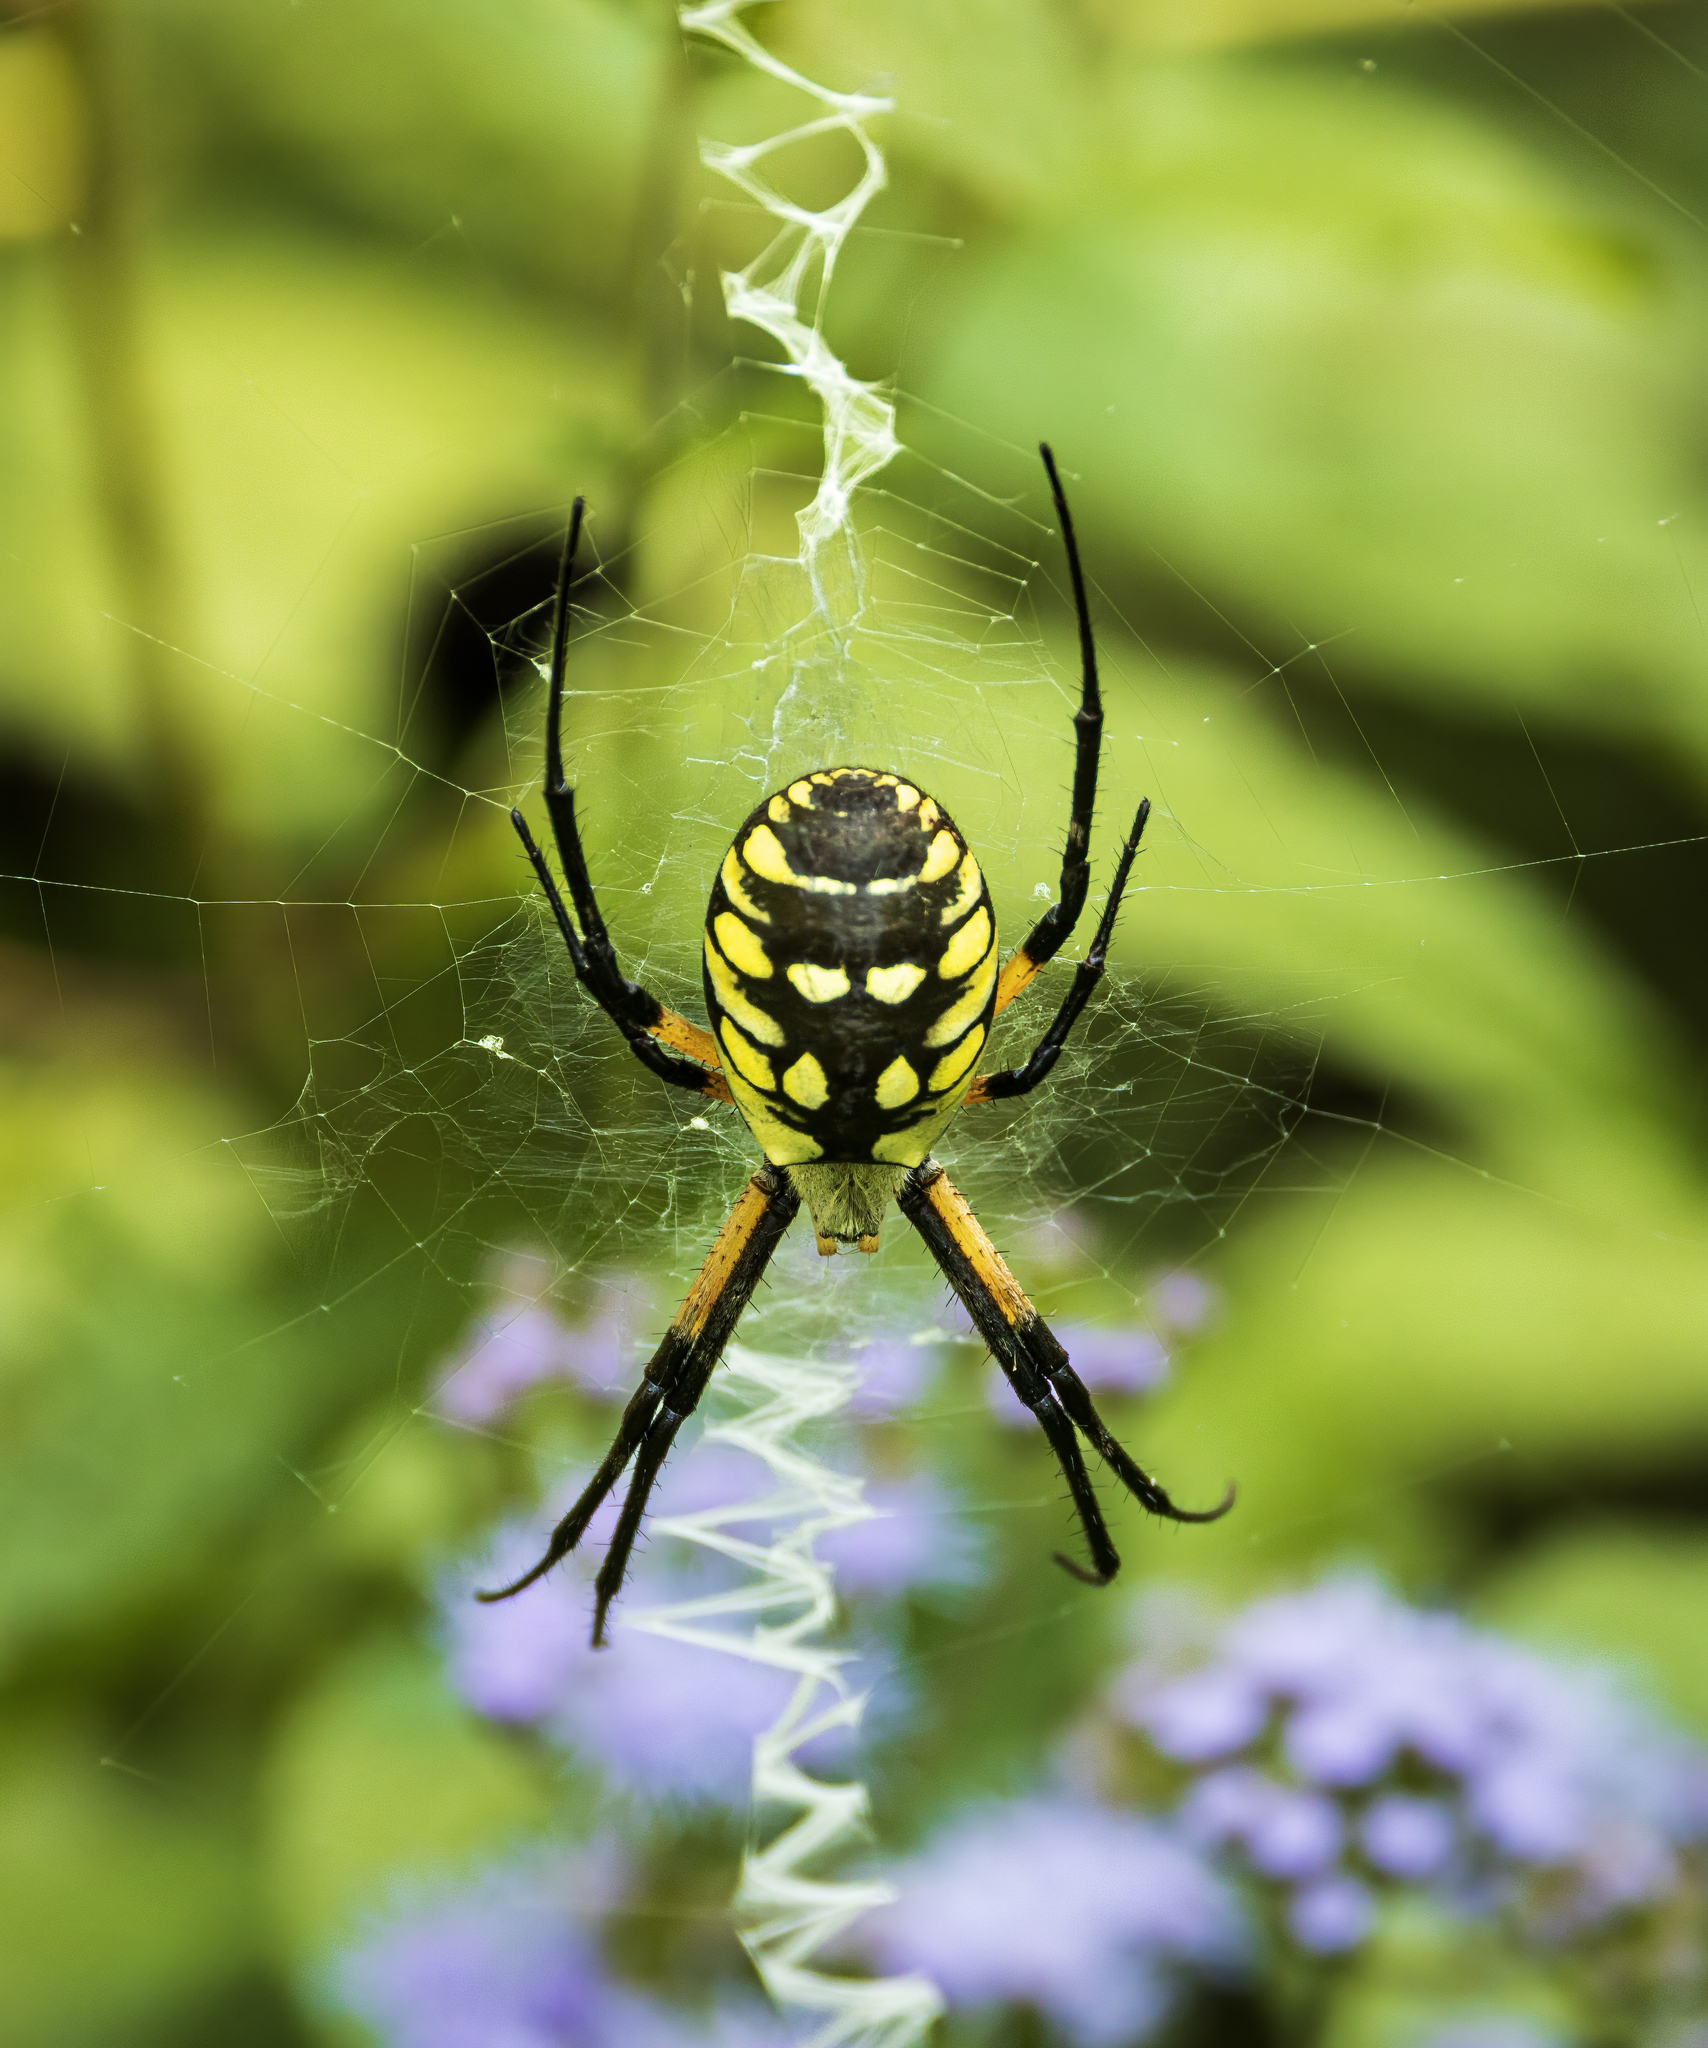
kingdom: Animalia
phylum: Arthropoda
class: Arachnida
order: Araneae
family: Araneidae
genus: Argiope
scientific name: Argiope aurantia
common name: Orb weavers
